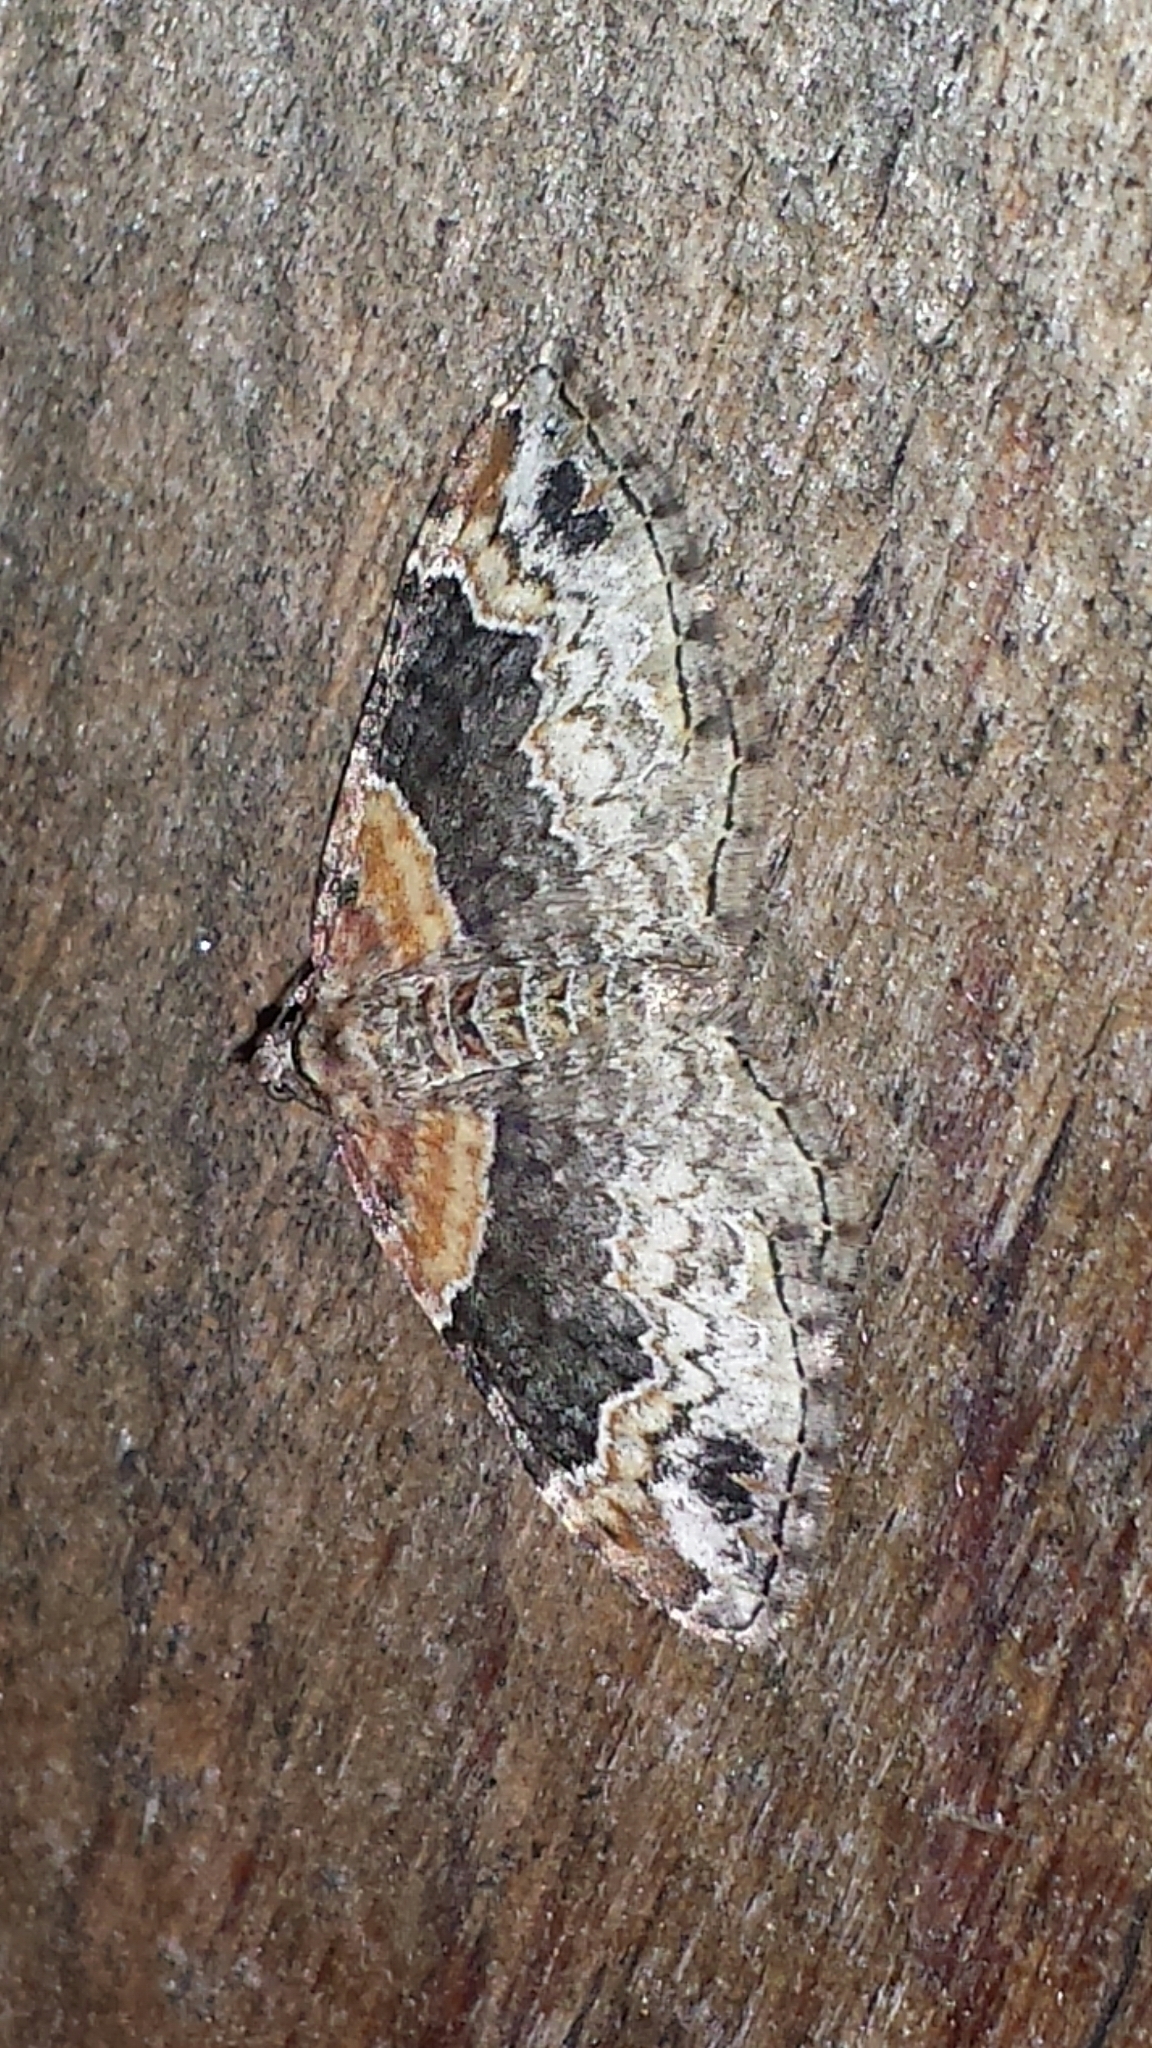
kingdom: Animalia
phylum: Arthropoda
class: Insecta
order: Lepidoptera
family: Geometridae
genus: Xanthorhoe
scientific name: Xanthorhoe ferrugata
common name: Dark-barred twin-spot carpet
